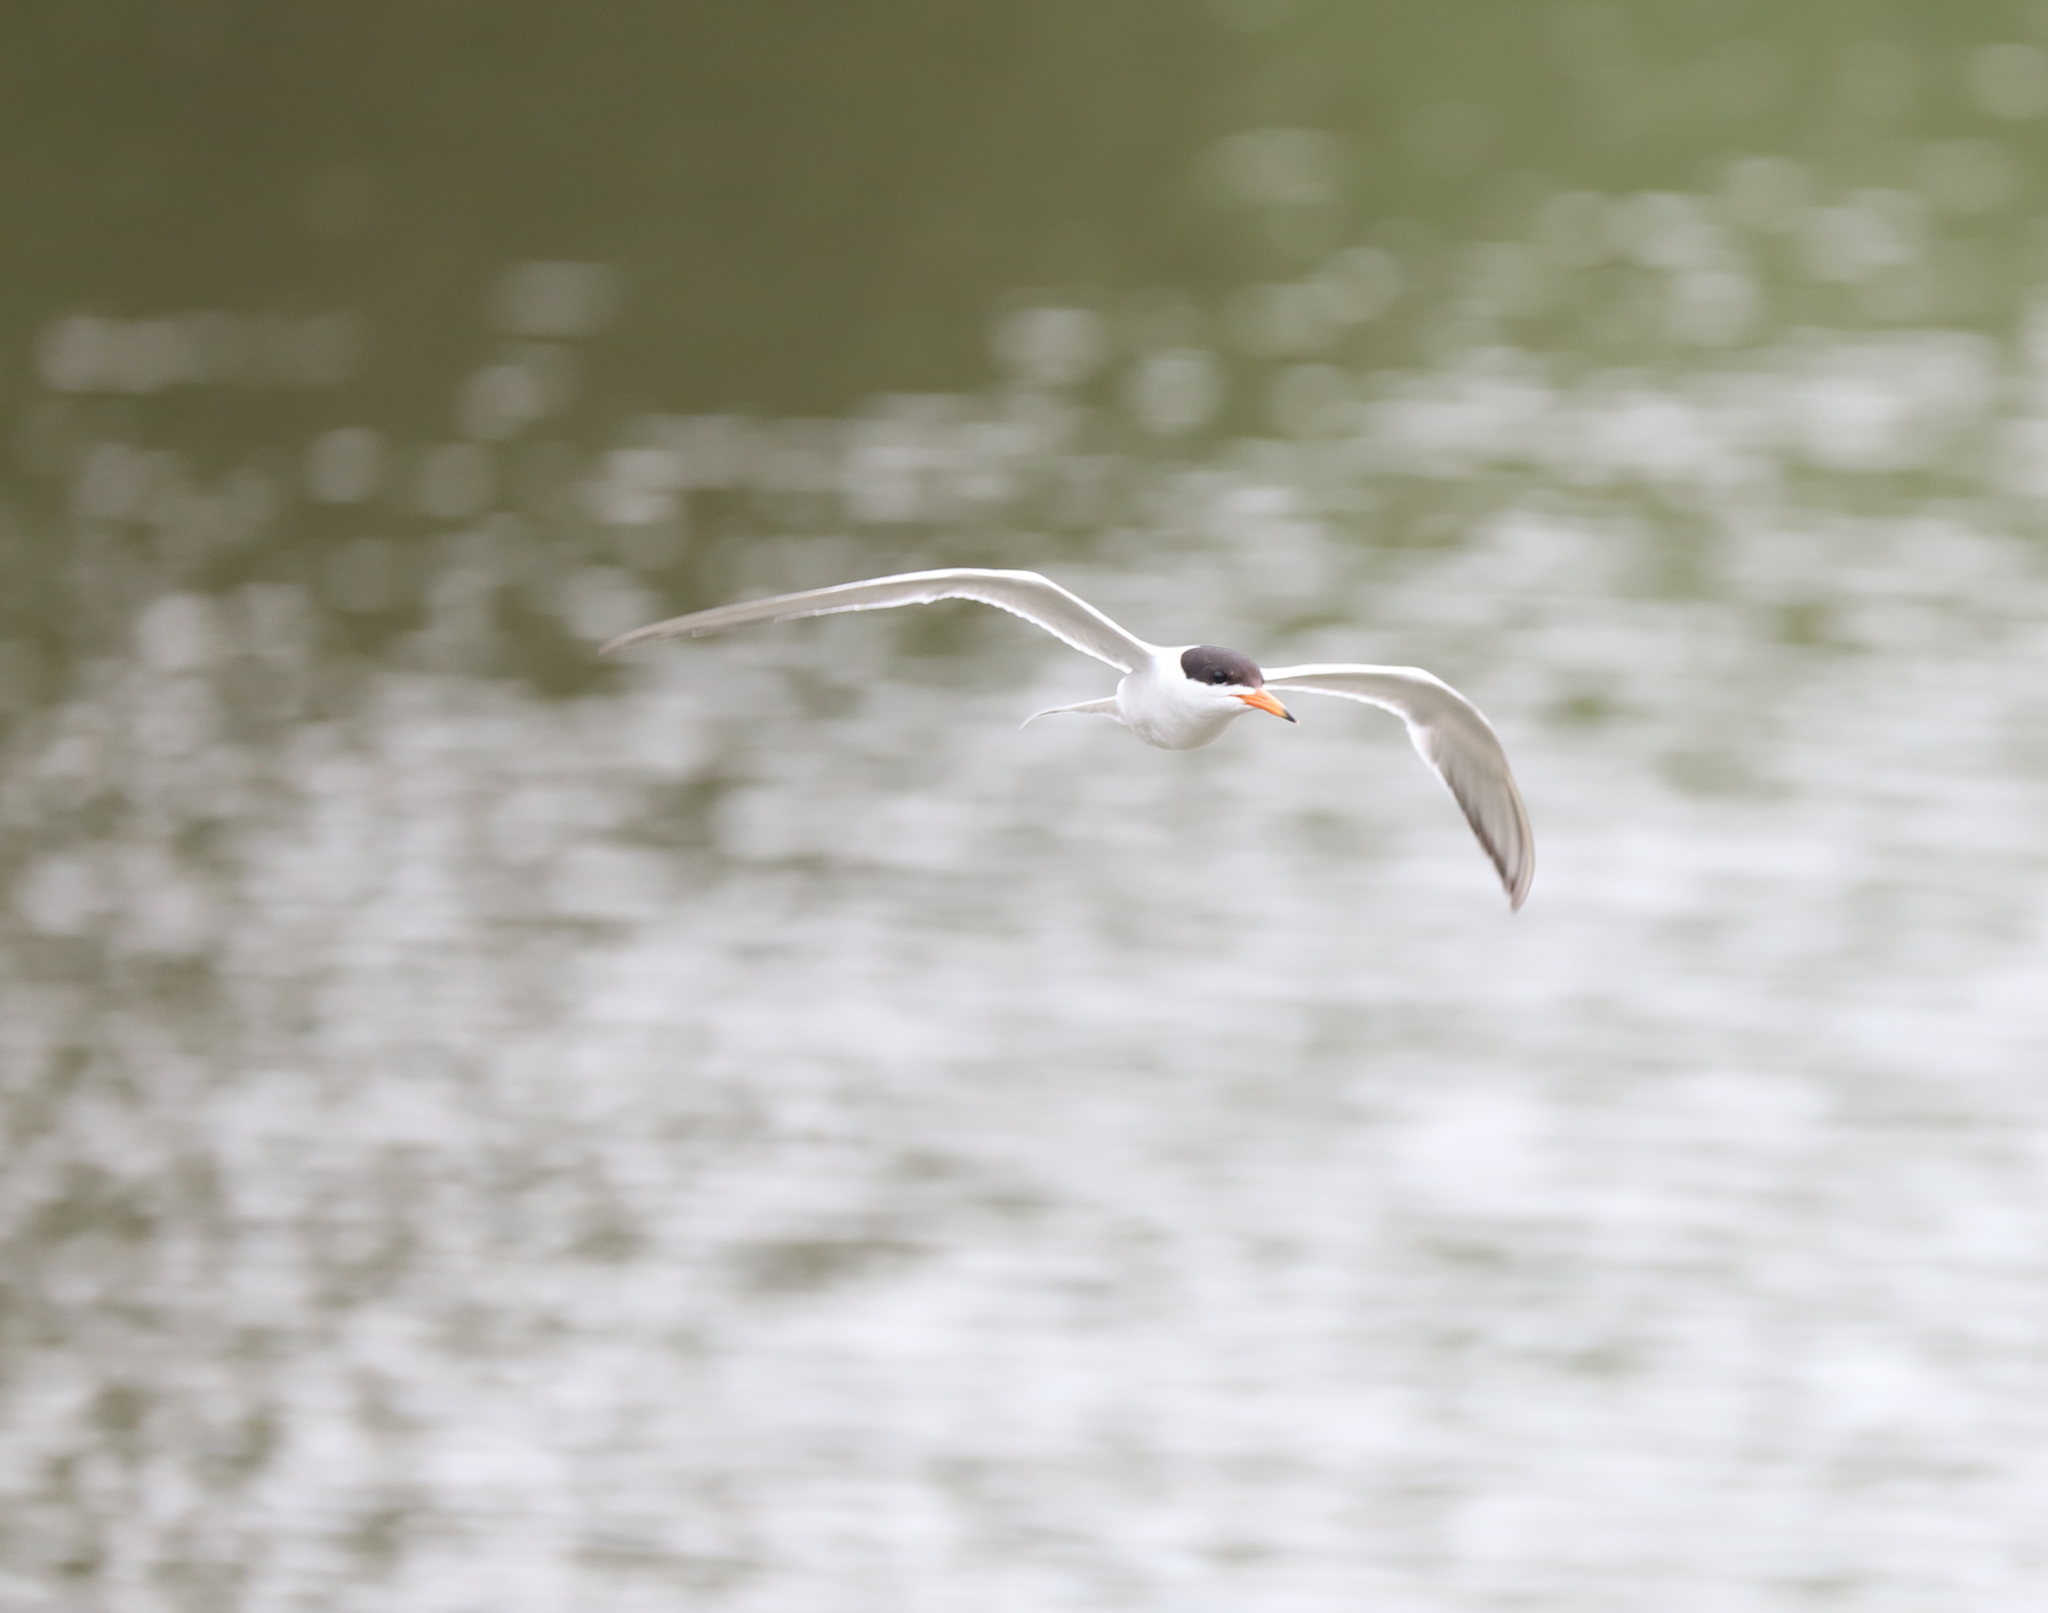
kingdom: Animalia
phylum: Chordata
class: Aves
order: Charadriiformes
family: Laridae
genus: Sterna
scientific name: Sterna forsteri
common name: Forster's tern
